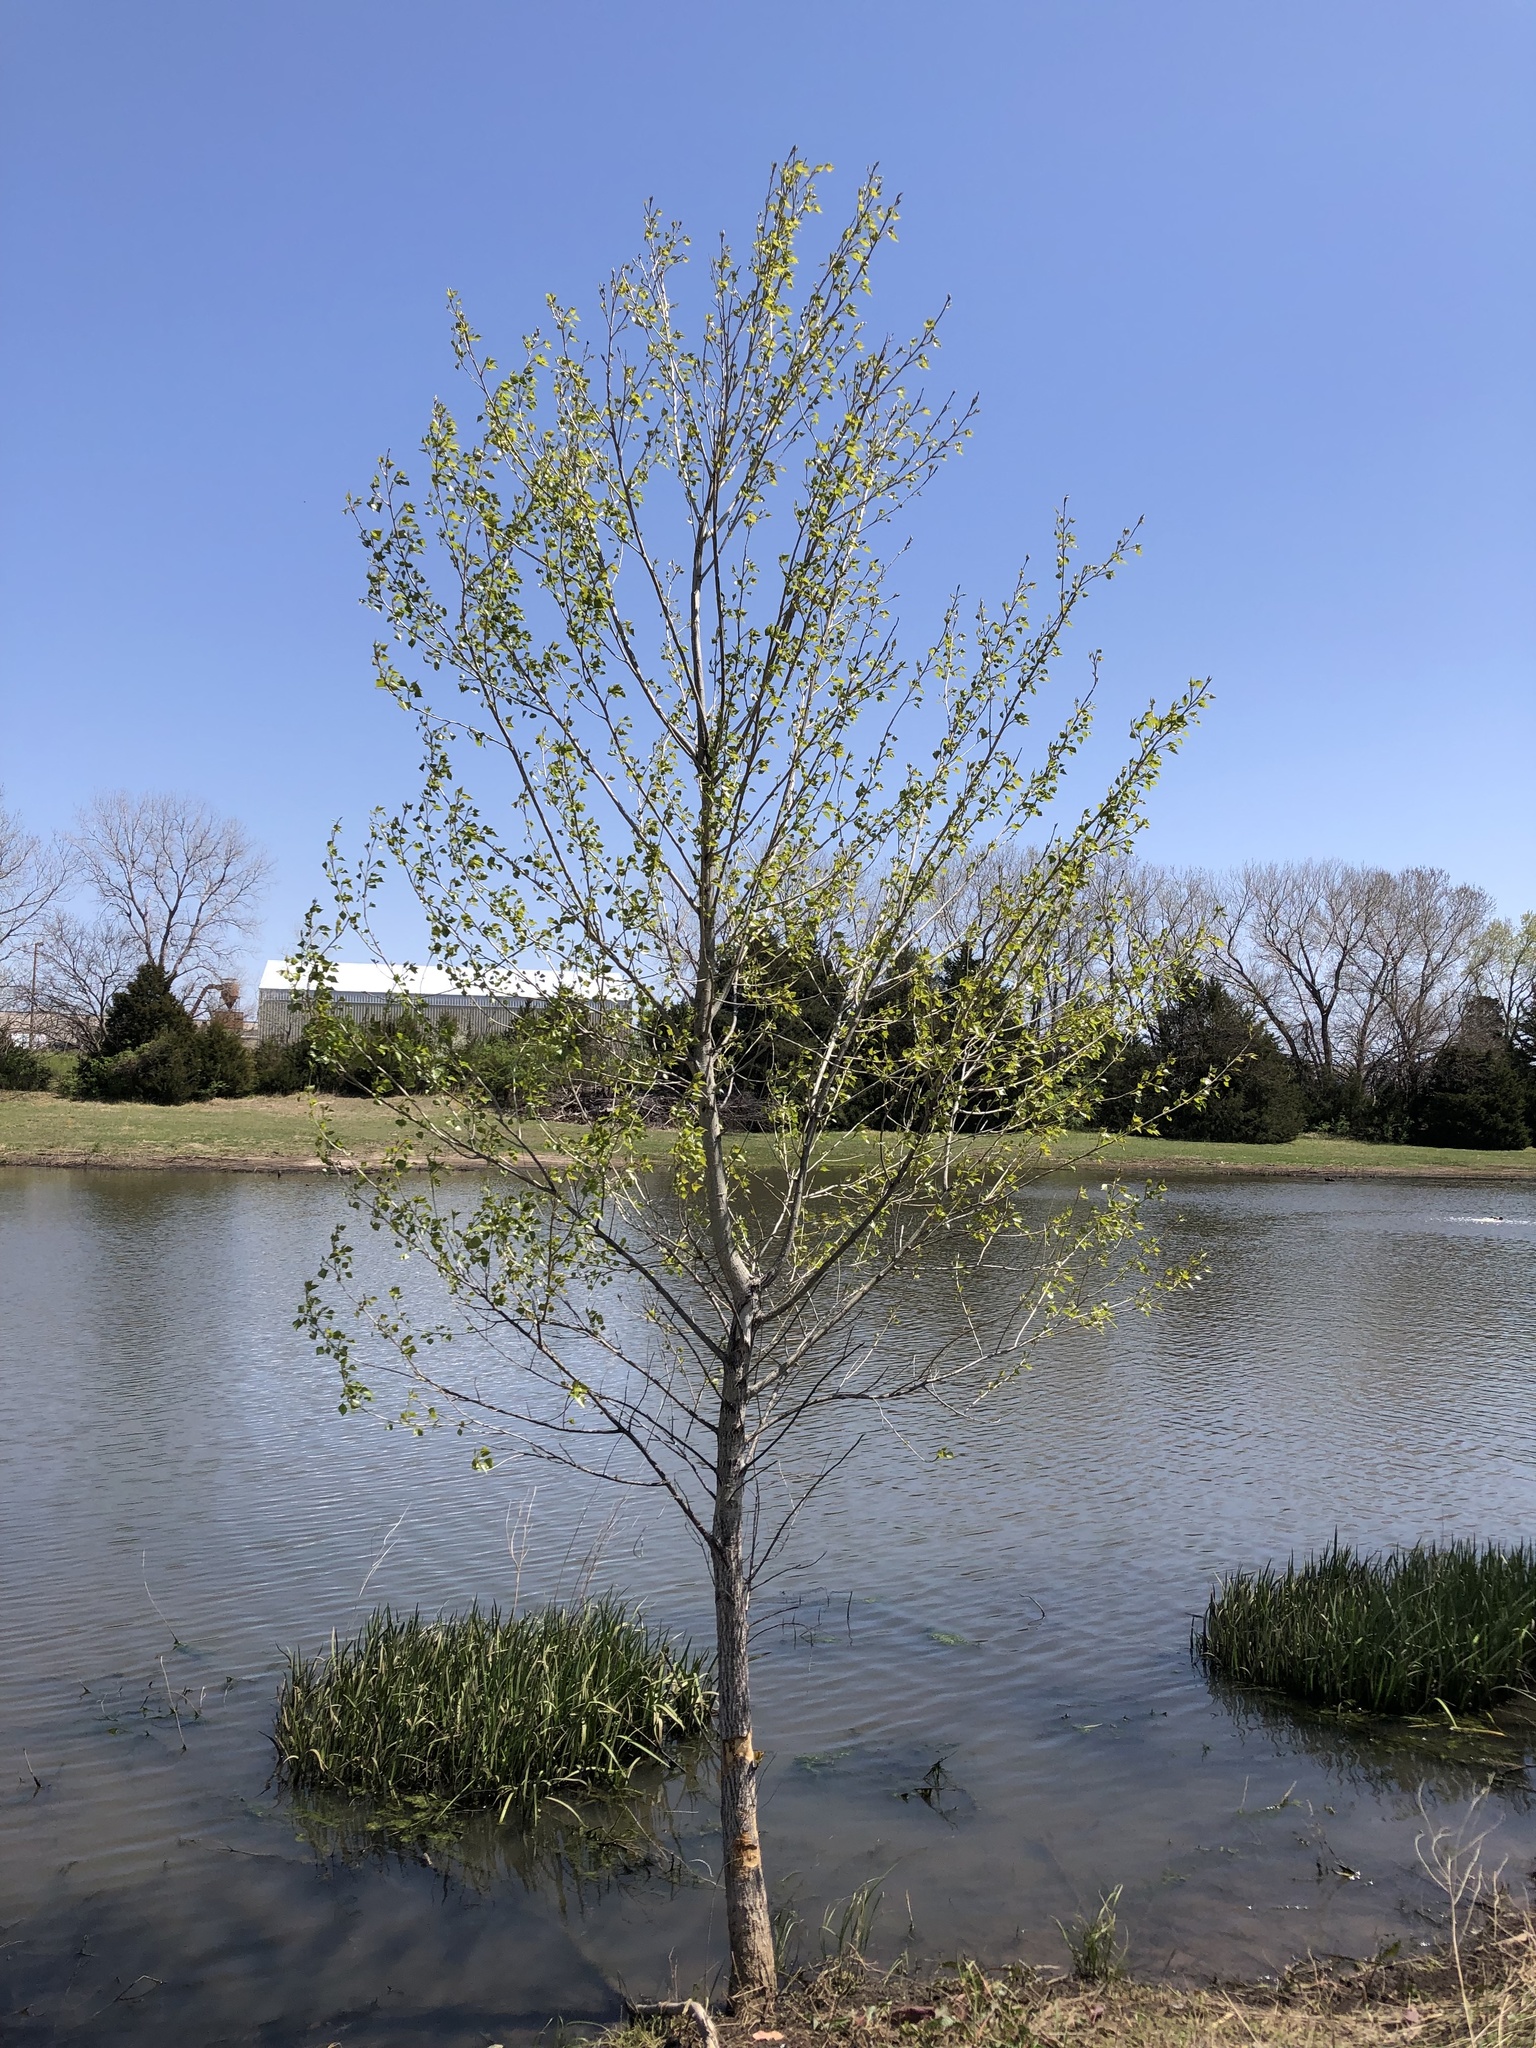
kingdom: Plantae
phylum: Tracheophyta
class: Magnoliopsida
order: Malpighiales
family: Salicaceae
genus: Populus
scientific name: Populus deltoides
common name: Eastern cottonwood
